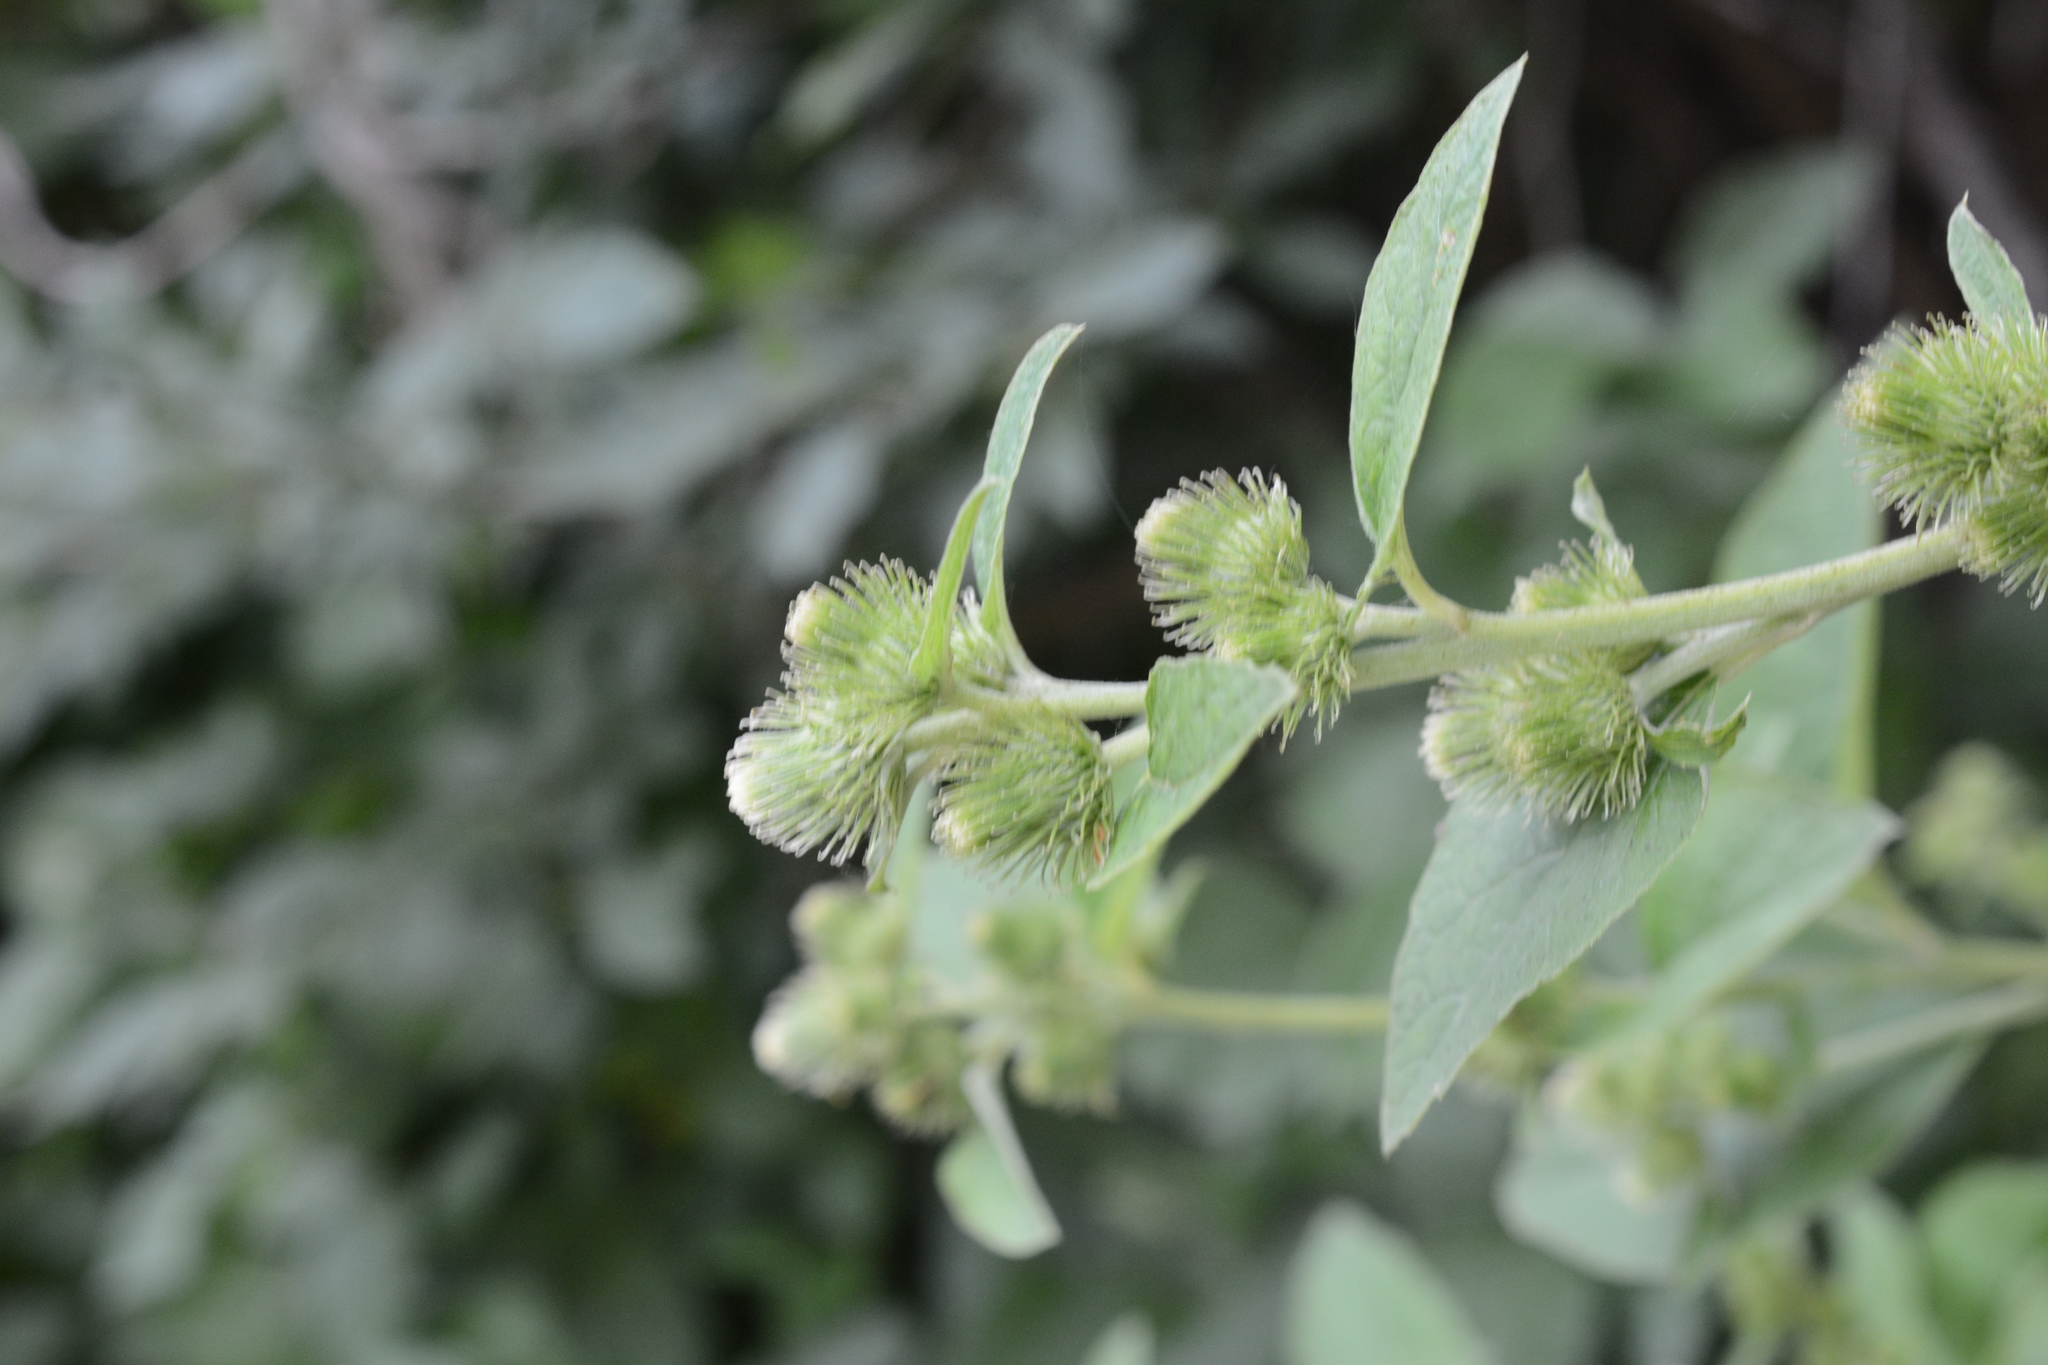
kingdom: Plantae
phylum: Tracheophyta
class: Magnoliopsida
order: Asterales
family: Asteraceae
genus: Arctium
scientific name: Arctium minus
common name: Lesser burdock
